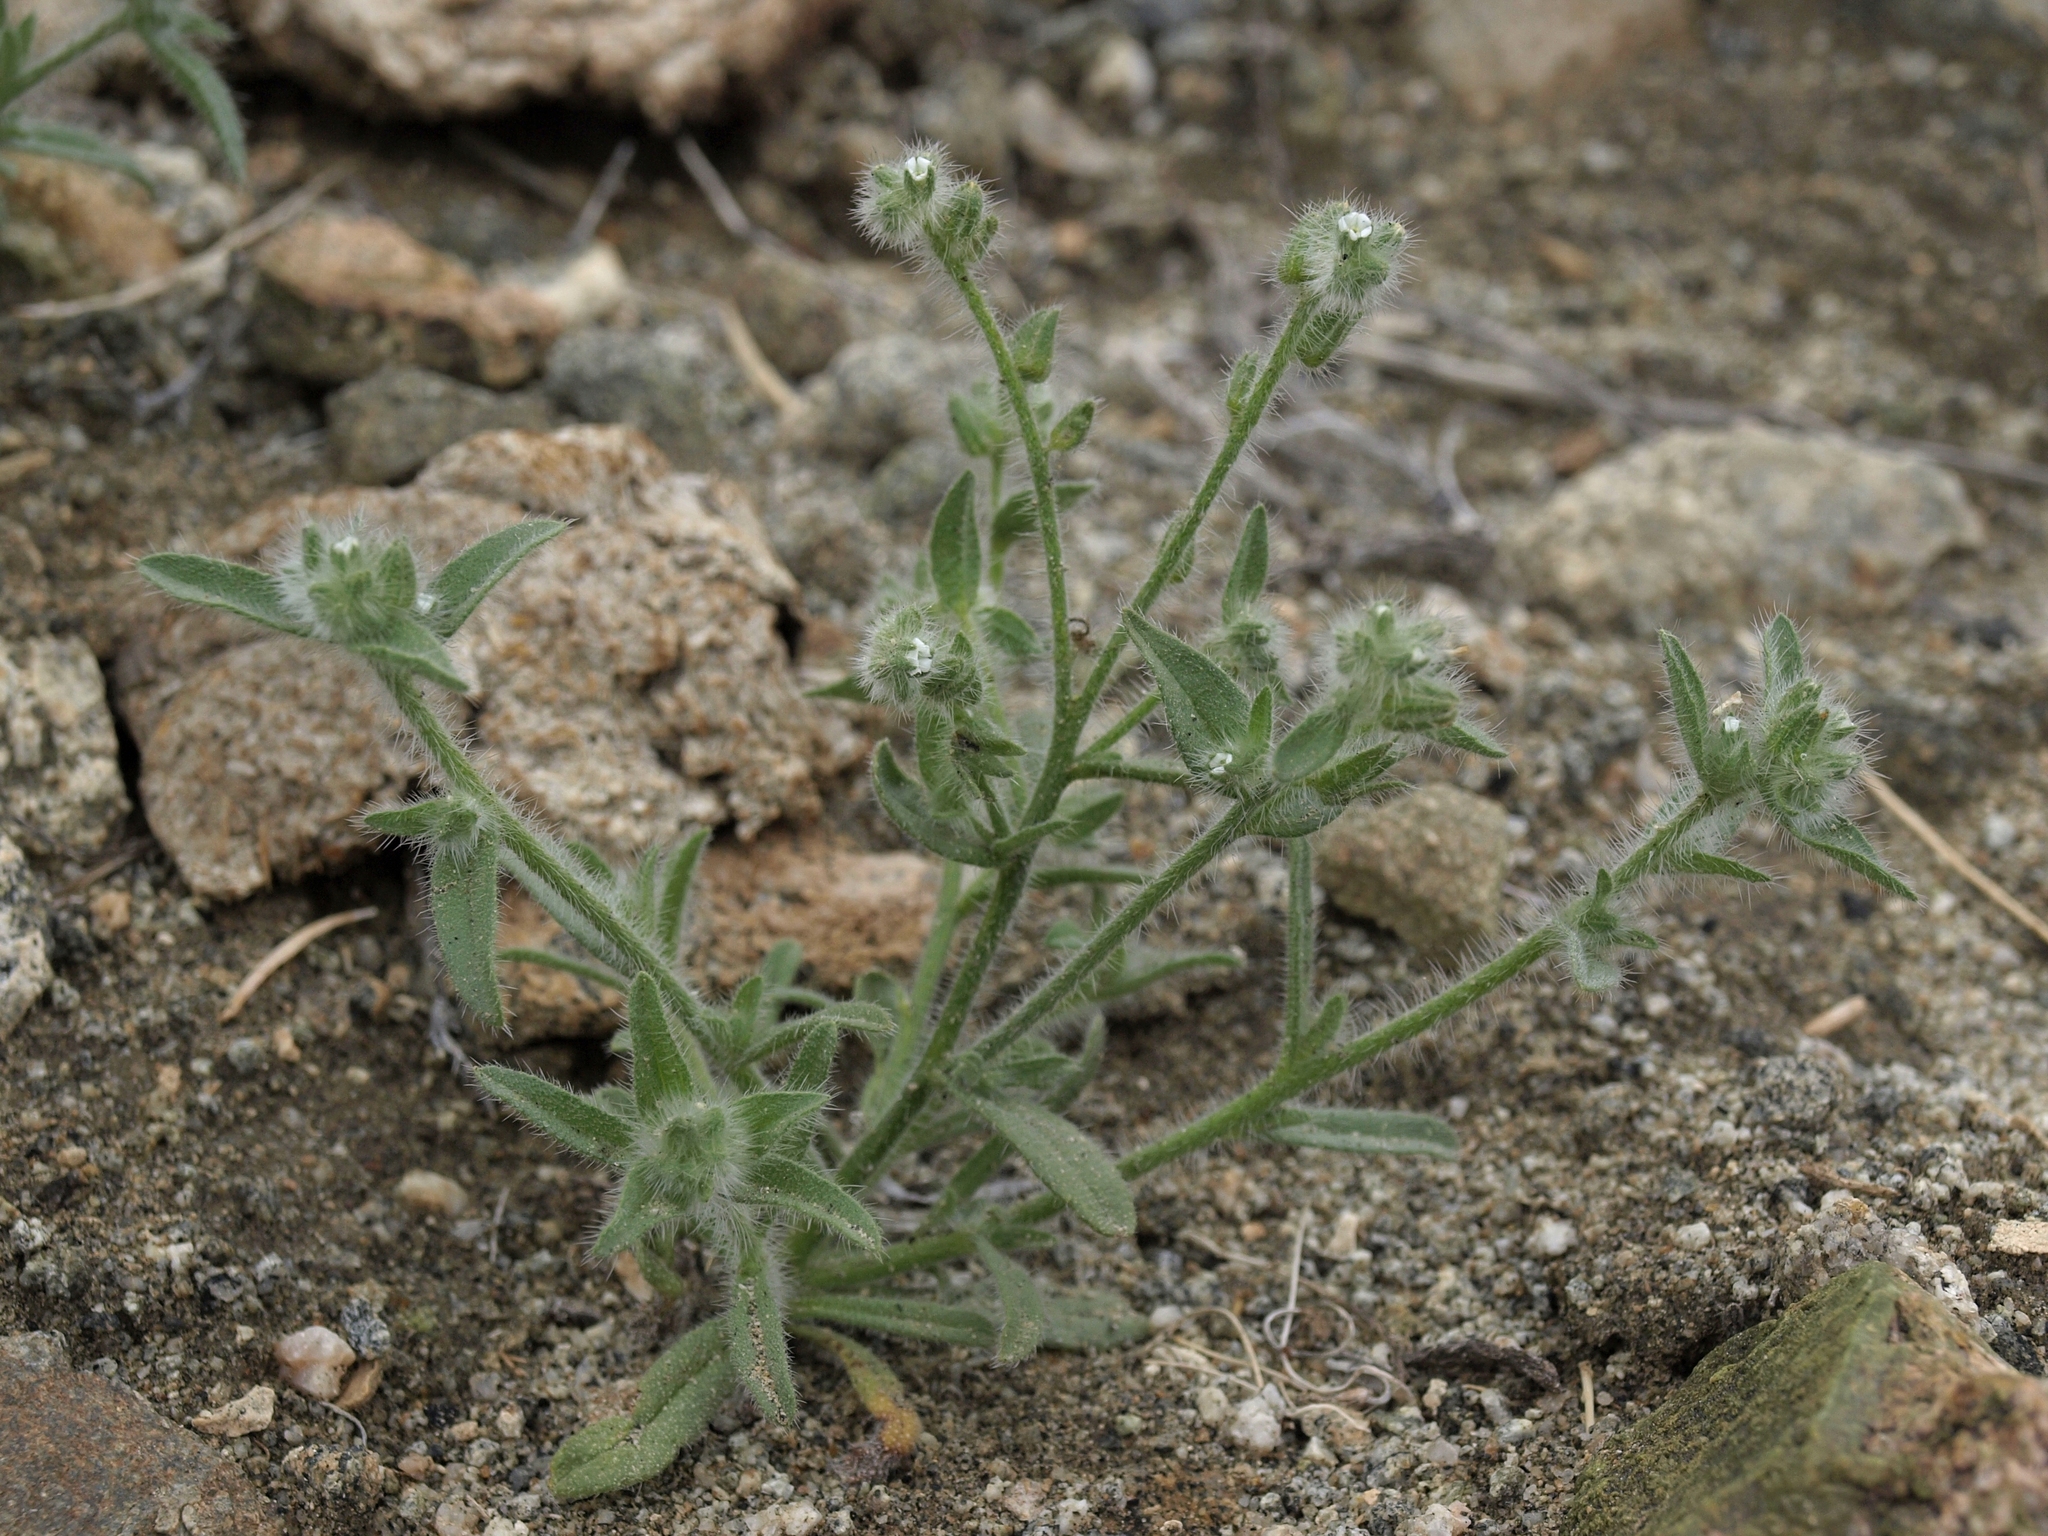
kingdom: Plantae
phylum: Tracheophyta
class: Magnoliopsida
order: Boraginales
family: Boraginaceae
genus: Simpsonanthus
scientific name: Simpsonanthus jonesii
